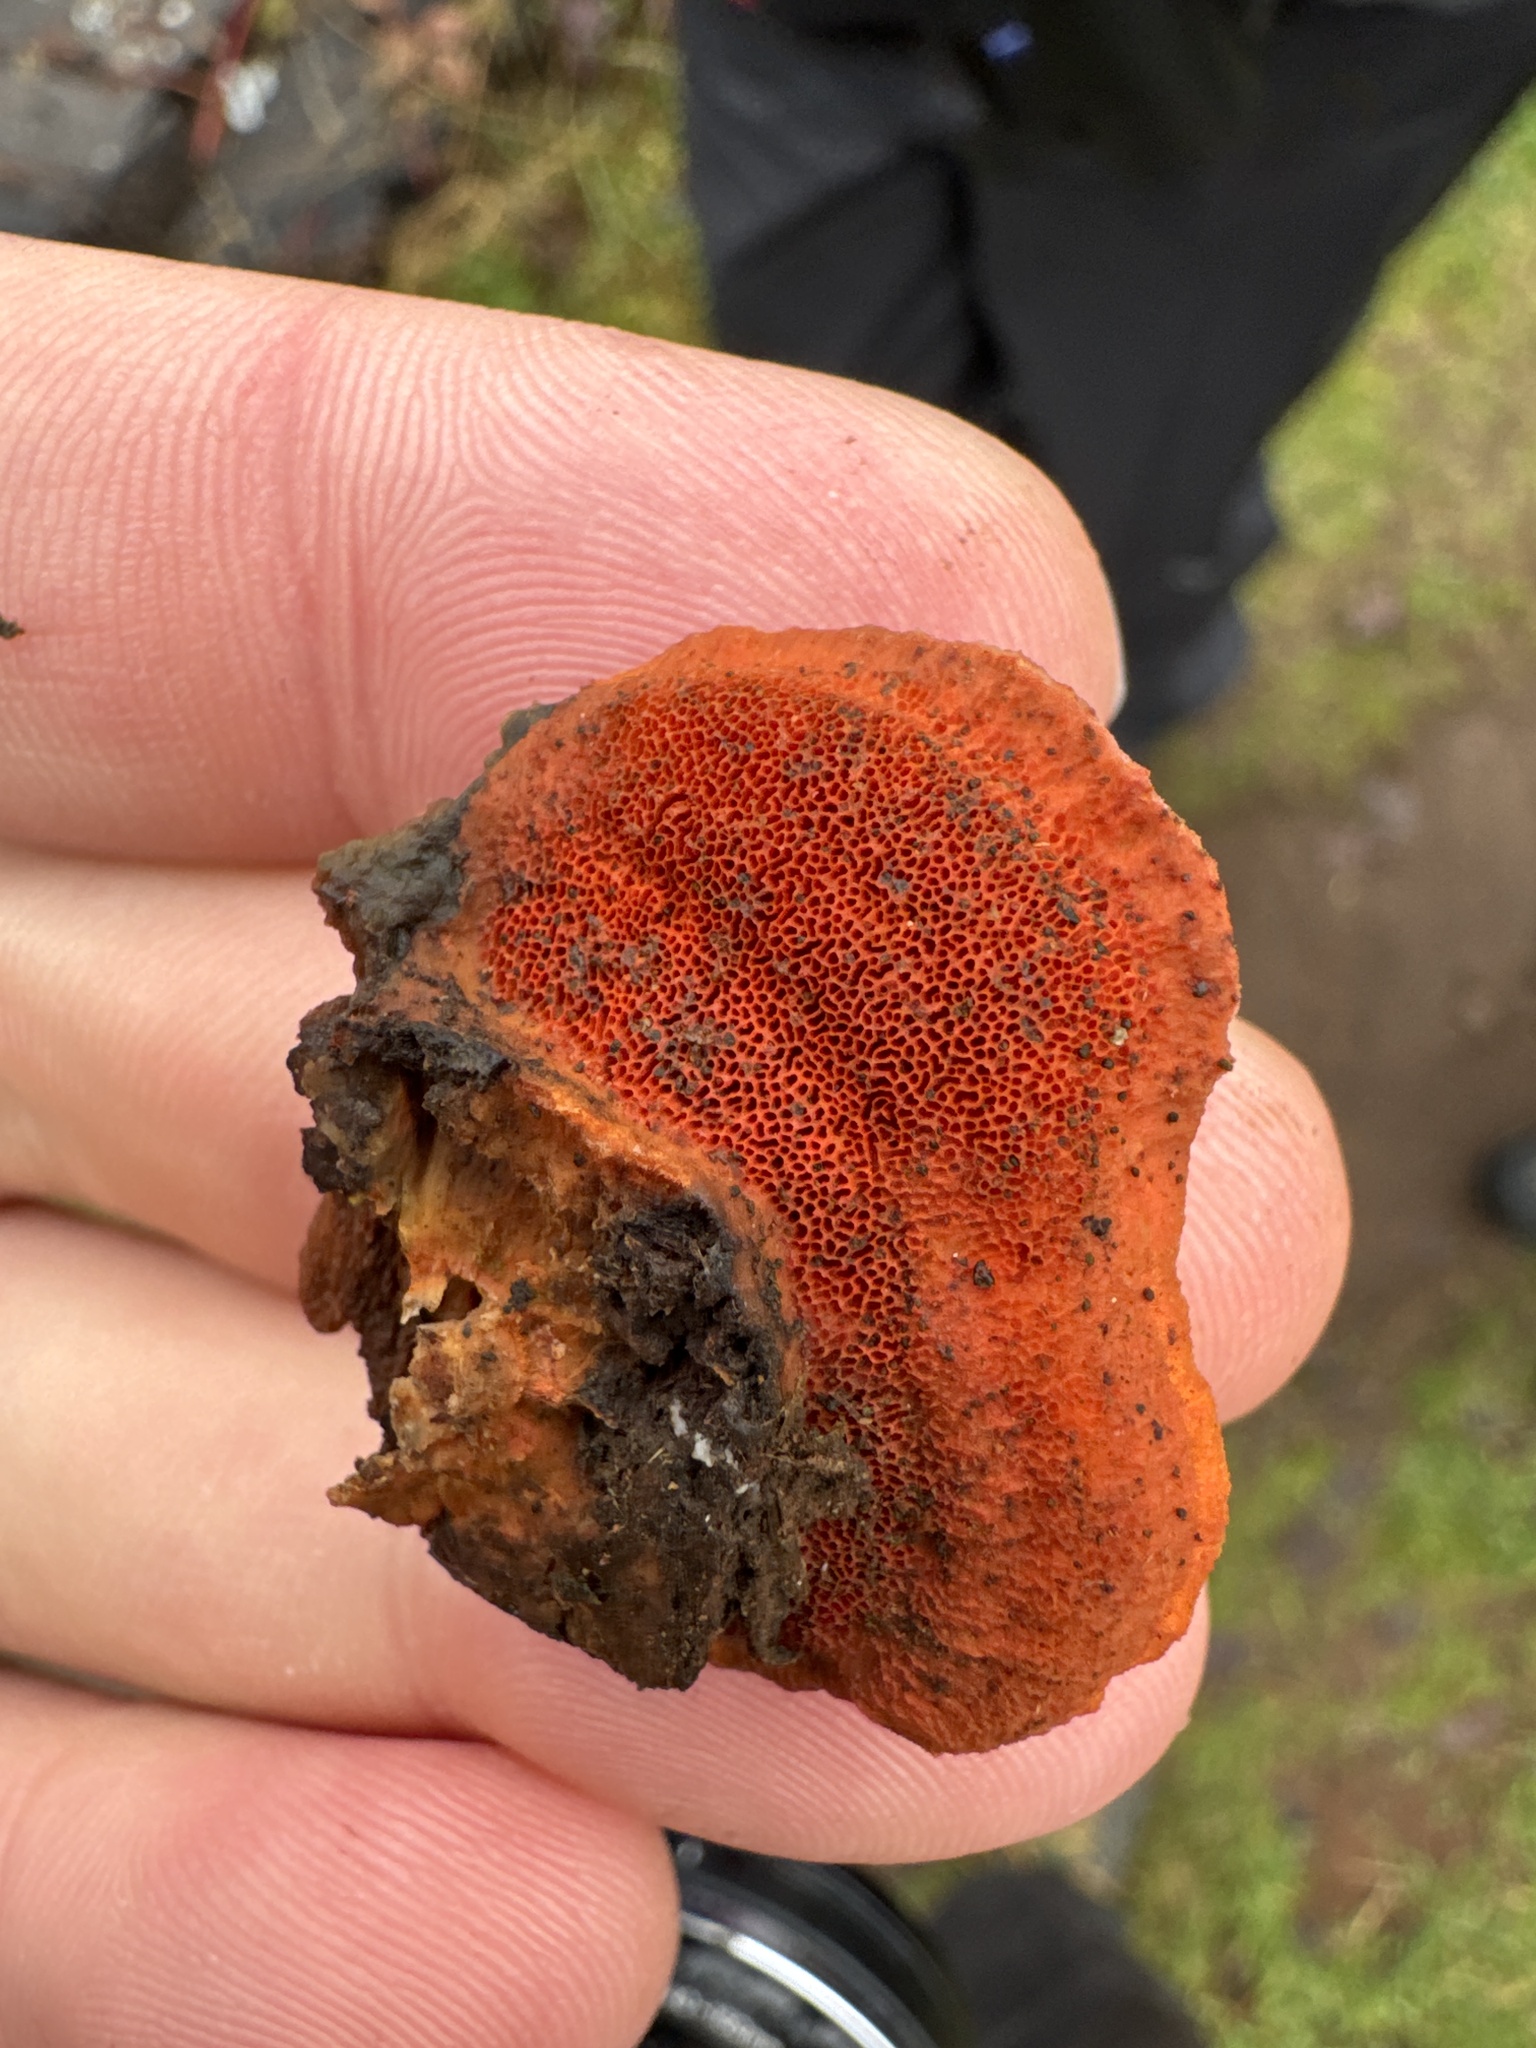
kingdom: Fungi
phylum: Basidiomycota
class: Agaricomycetes
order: Polyporales
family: Polyporaceae
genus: Trametes
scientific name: Trametes cinnabarina
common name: Northern cinnabar polypore
